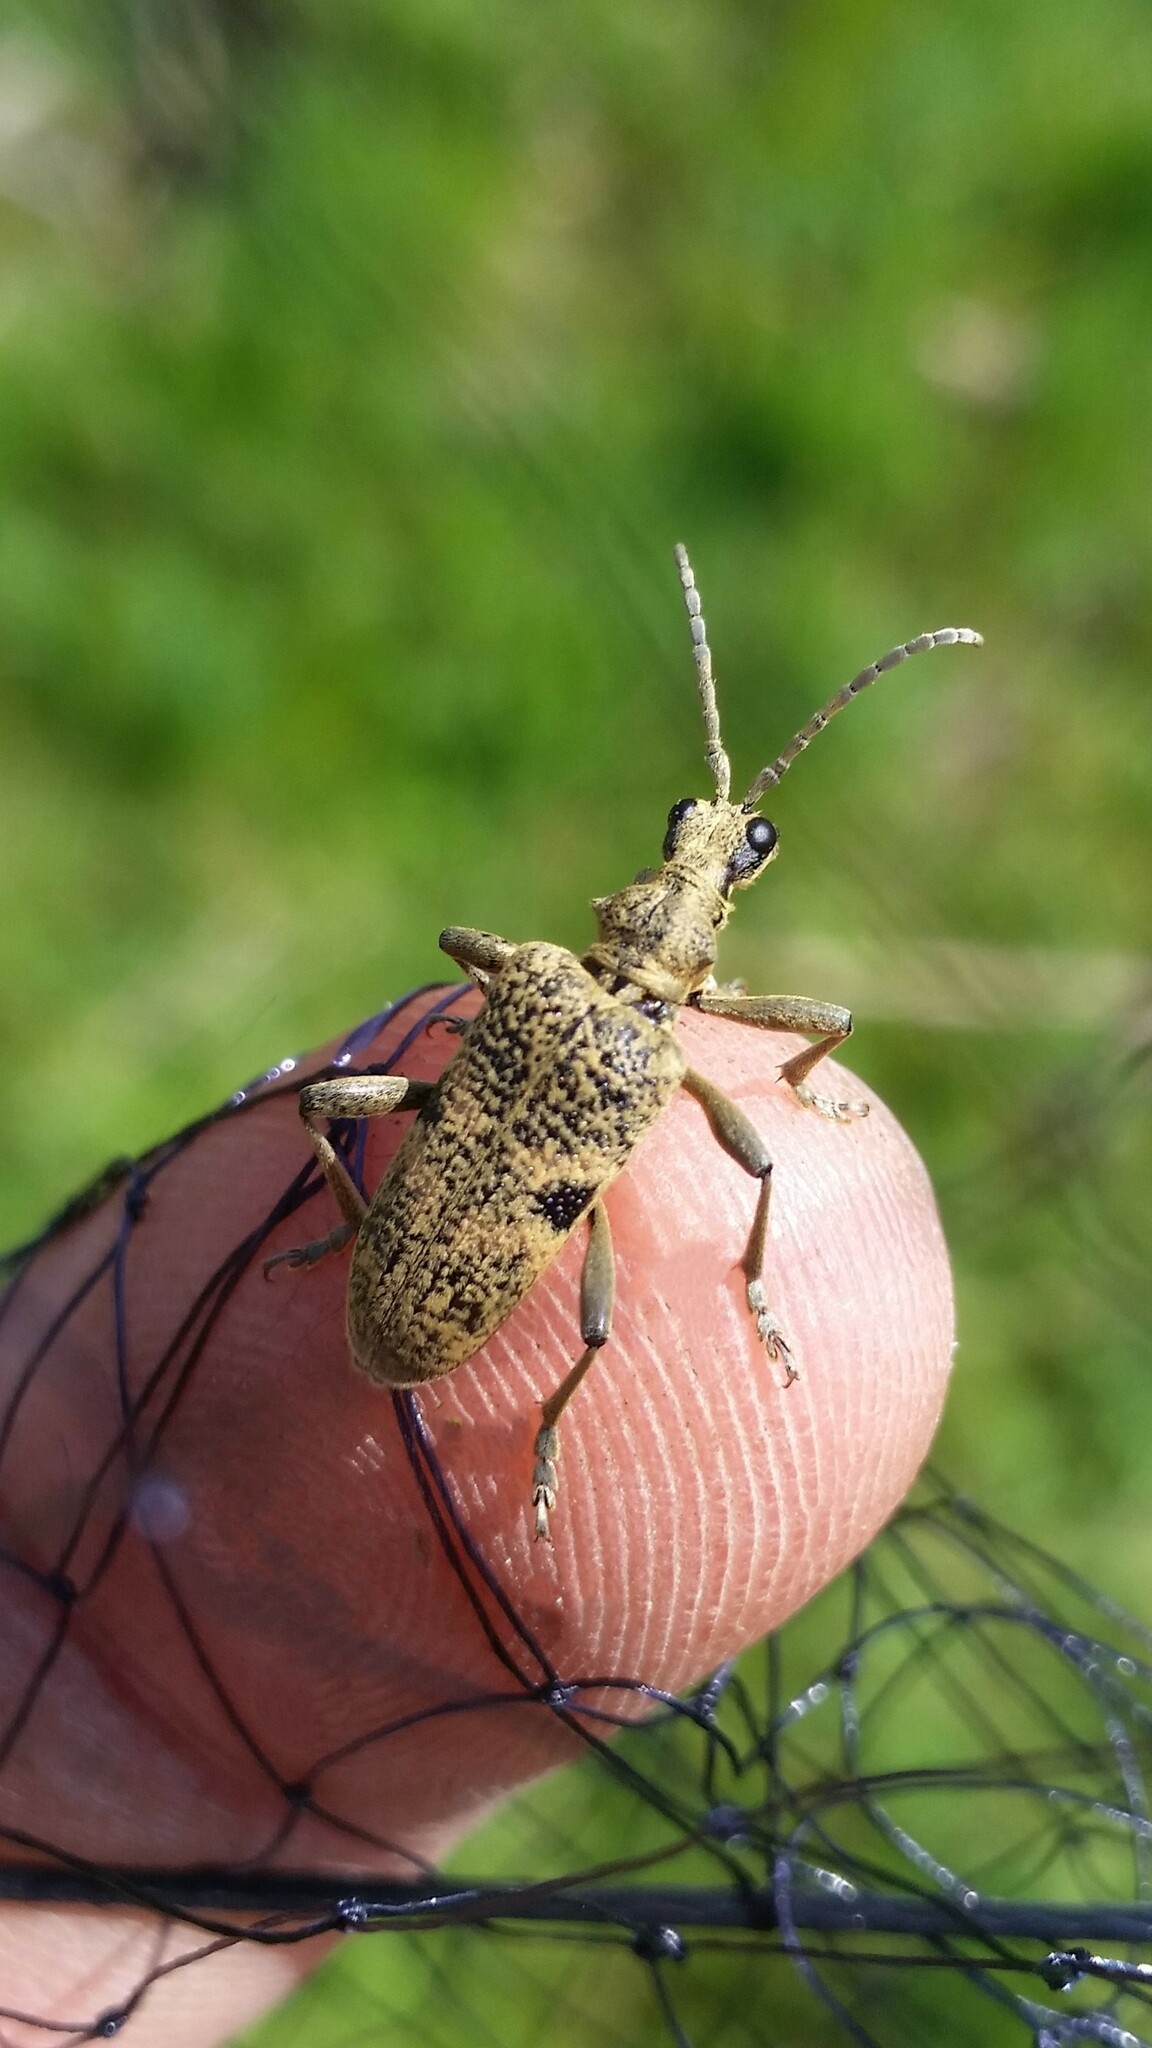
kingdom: Animalia
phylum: Arthropoda
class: Insecta
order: Coleoptera
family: Cerambycidae
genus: Rhagium
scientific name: Rhagium mordax
